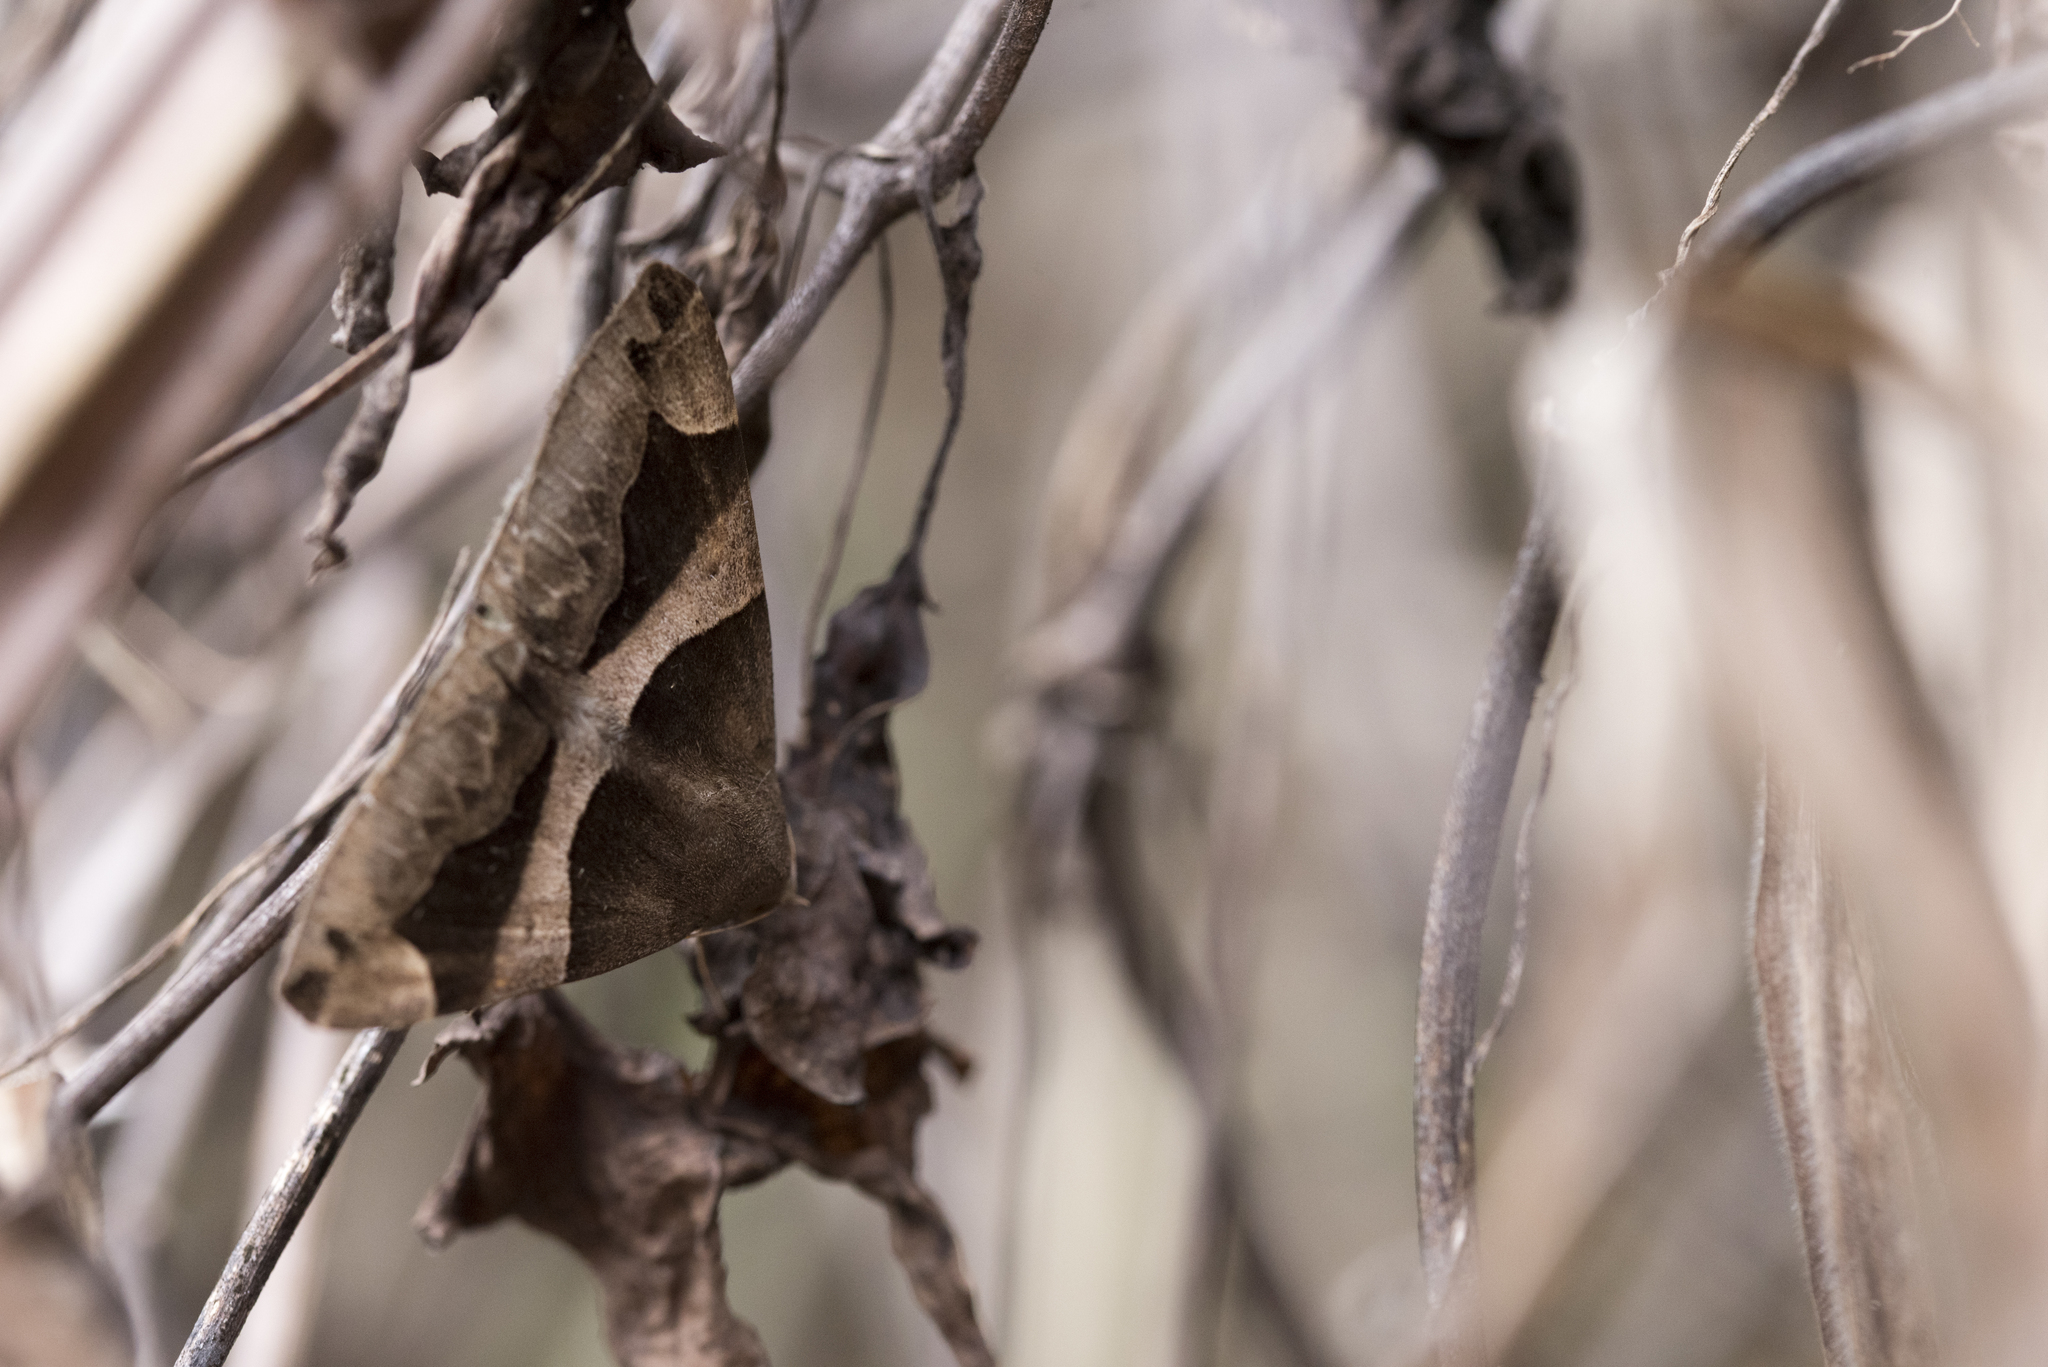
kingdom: Animalia
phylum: Arthropoda
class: Insecta
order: Lepidoptera
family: Erebidae
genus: Dysgonia
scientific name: Dysgonia stuposa
